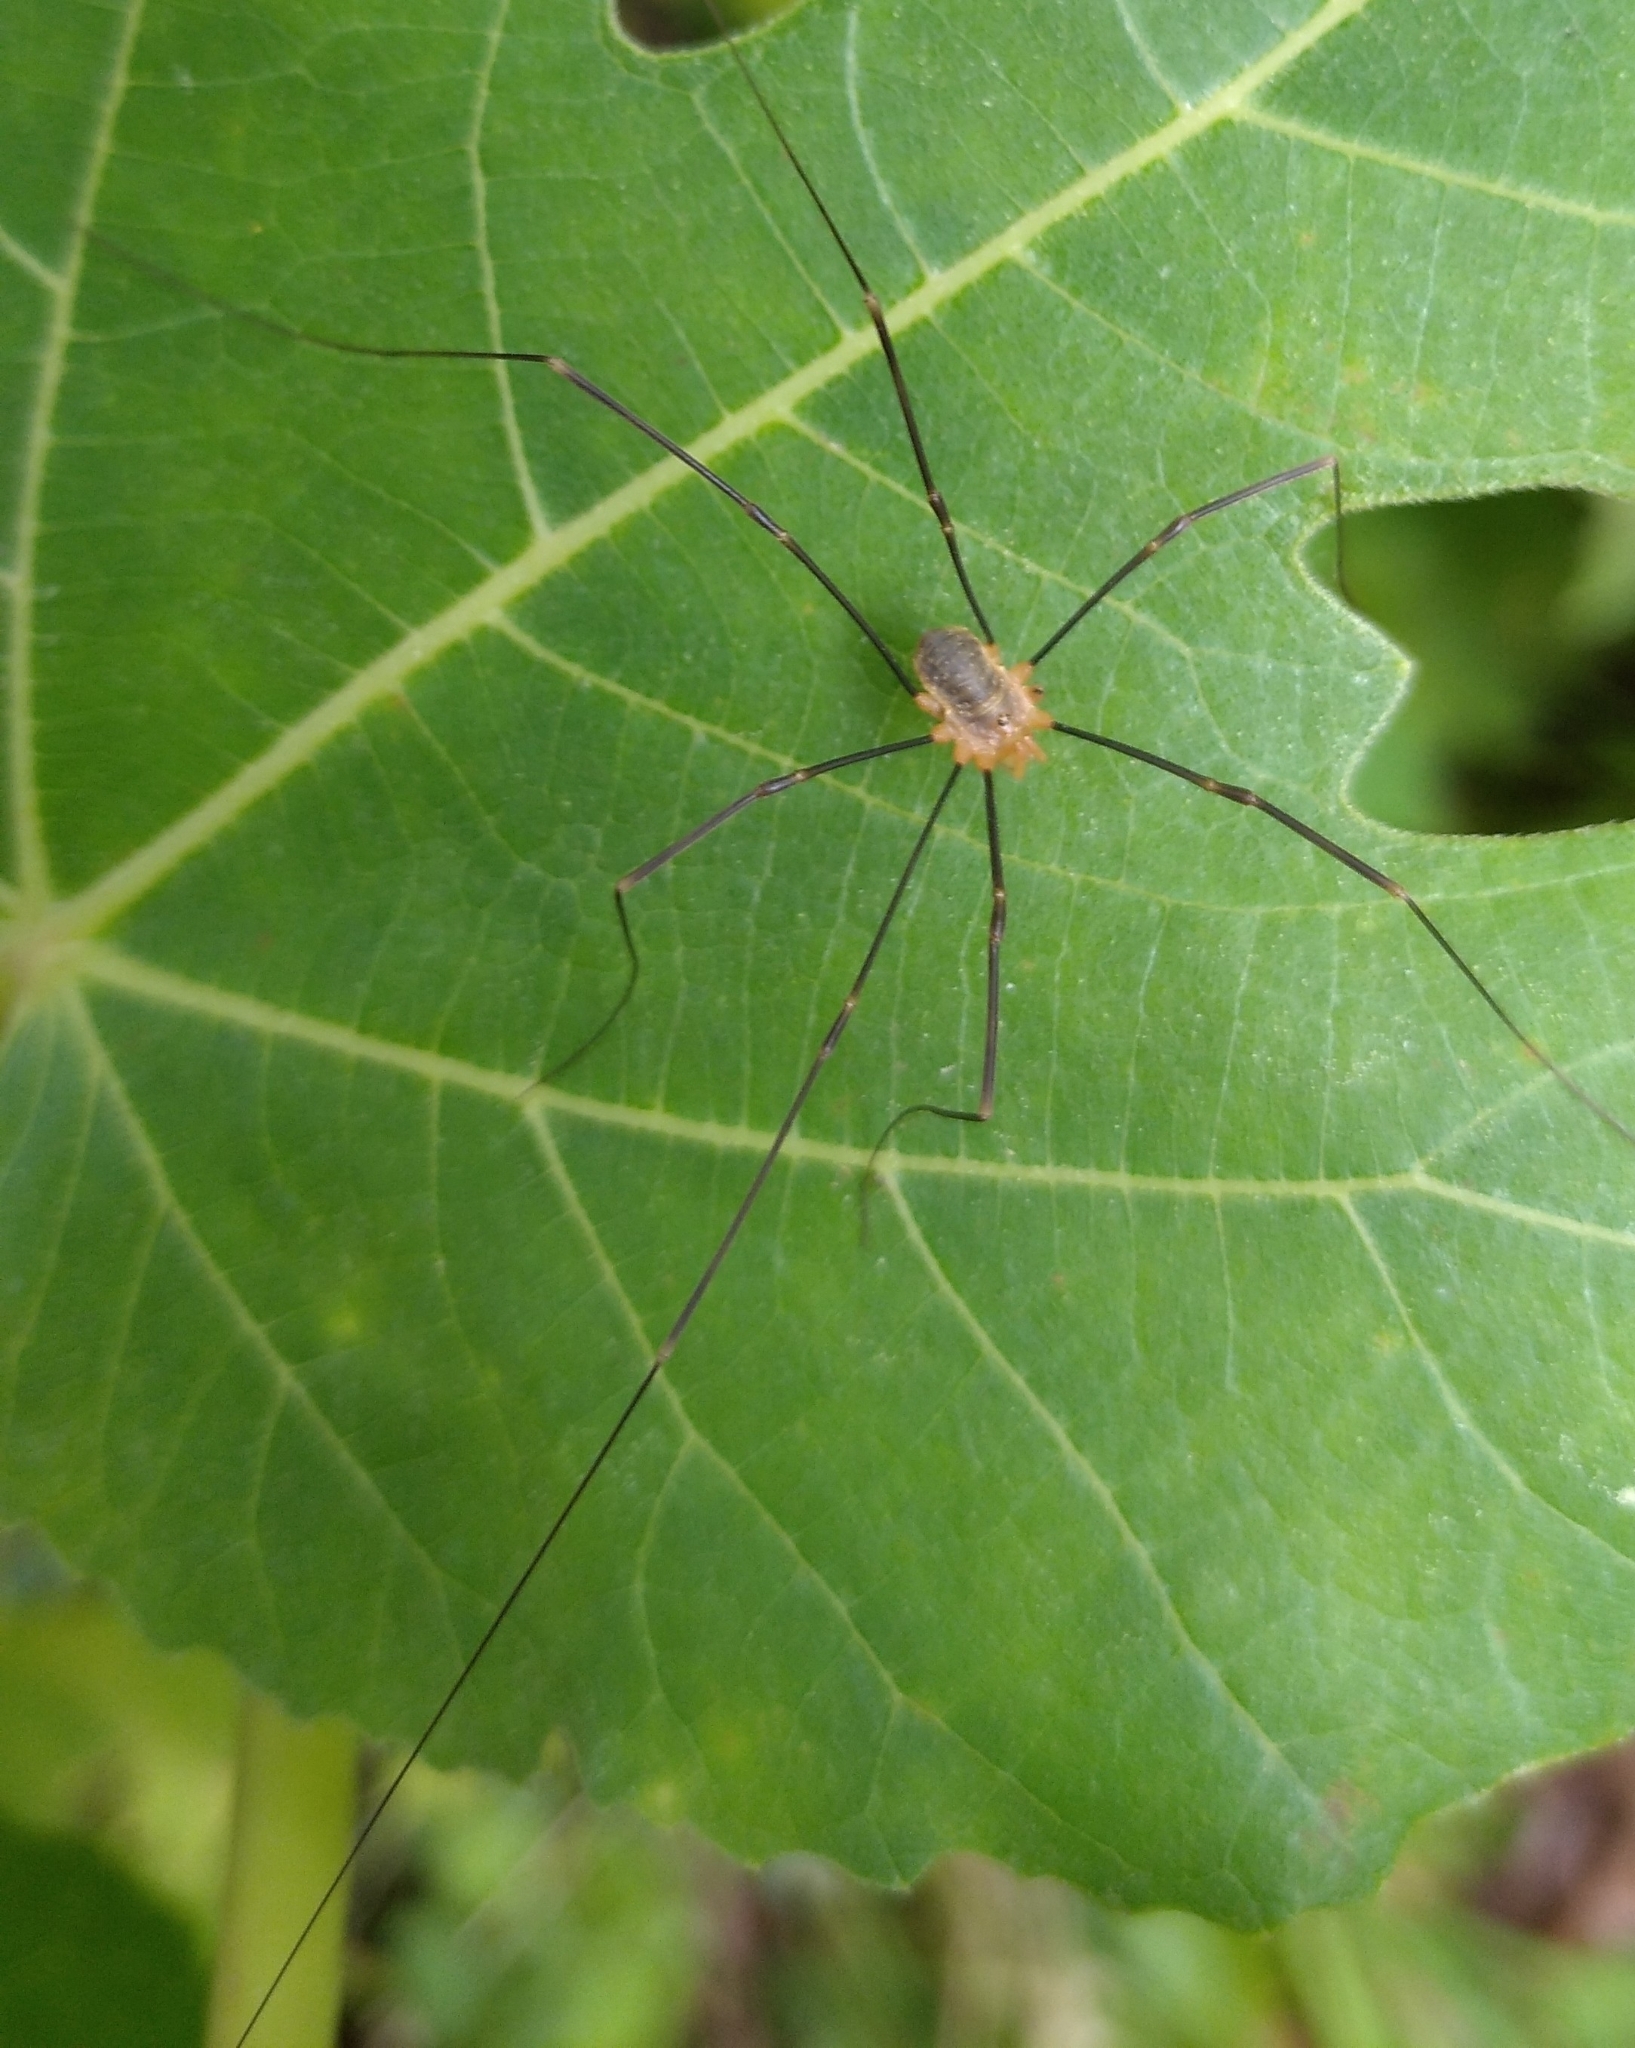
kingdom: Animalia
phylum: Arthropoda
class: Arachnida
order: Opiliones
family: Phalangiidae
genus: Opilio
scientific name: Opilio canestrinii
